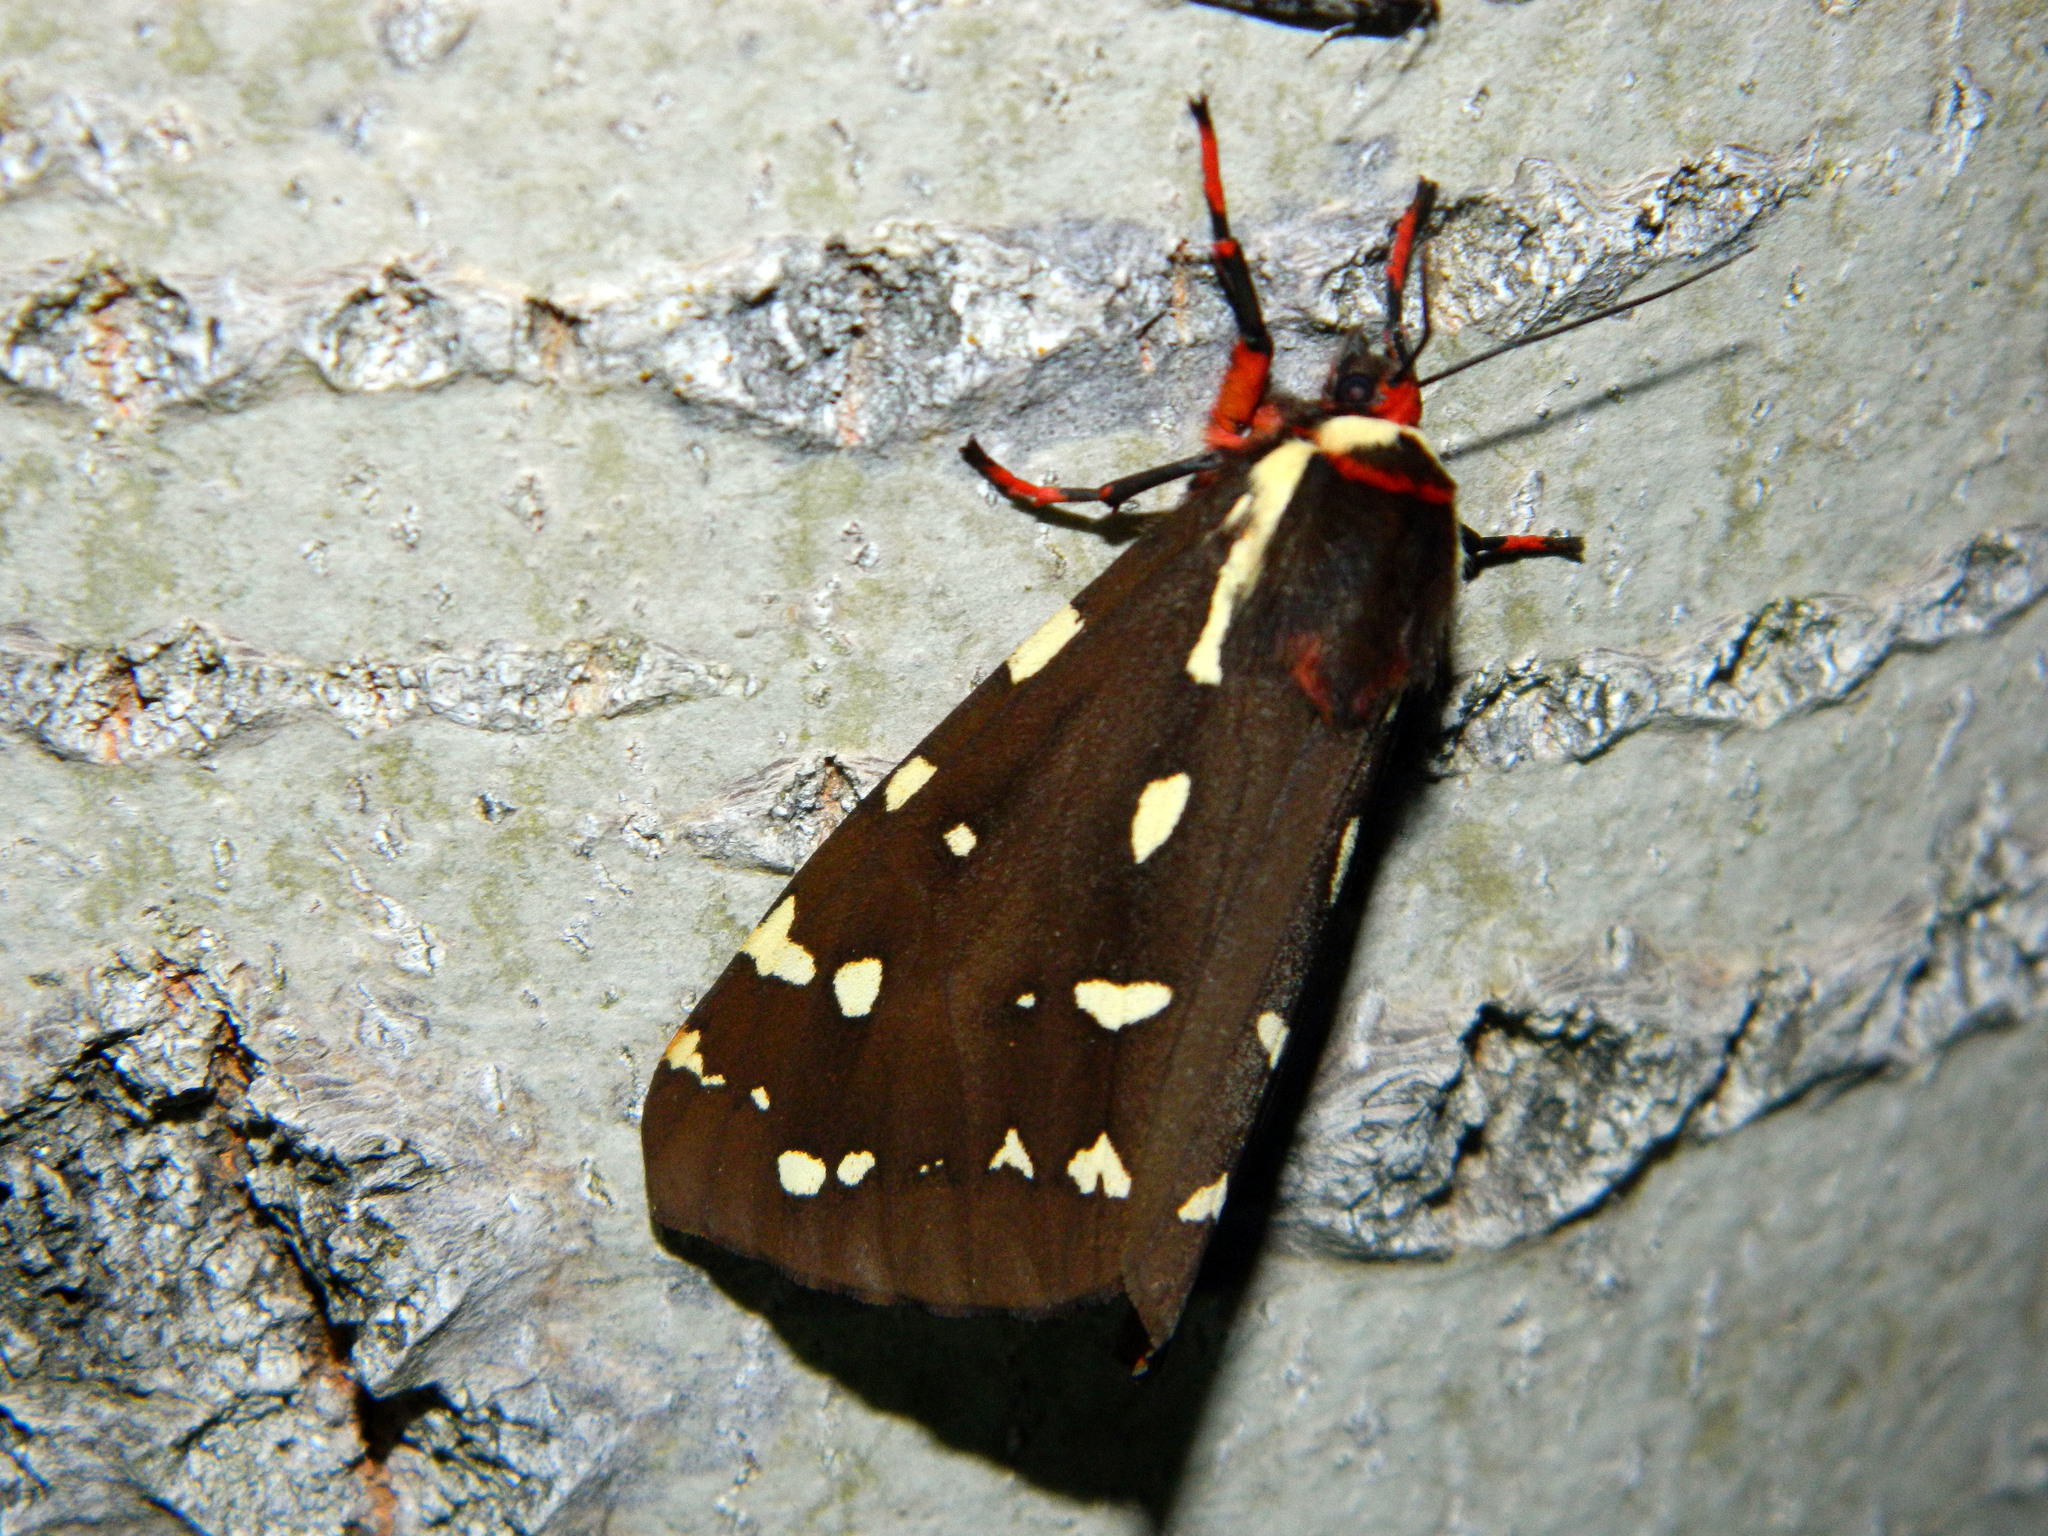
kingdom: Animalia
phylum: Arthropoda
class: Insecta
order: Lepidoptera
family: Erebidae
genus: Arctia
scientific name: Arctia parthenos
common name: St. lawrence tiger moth
